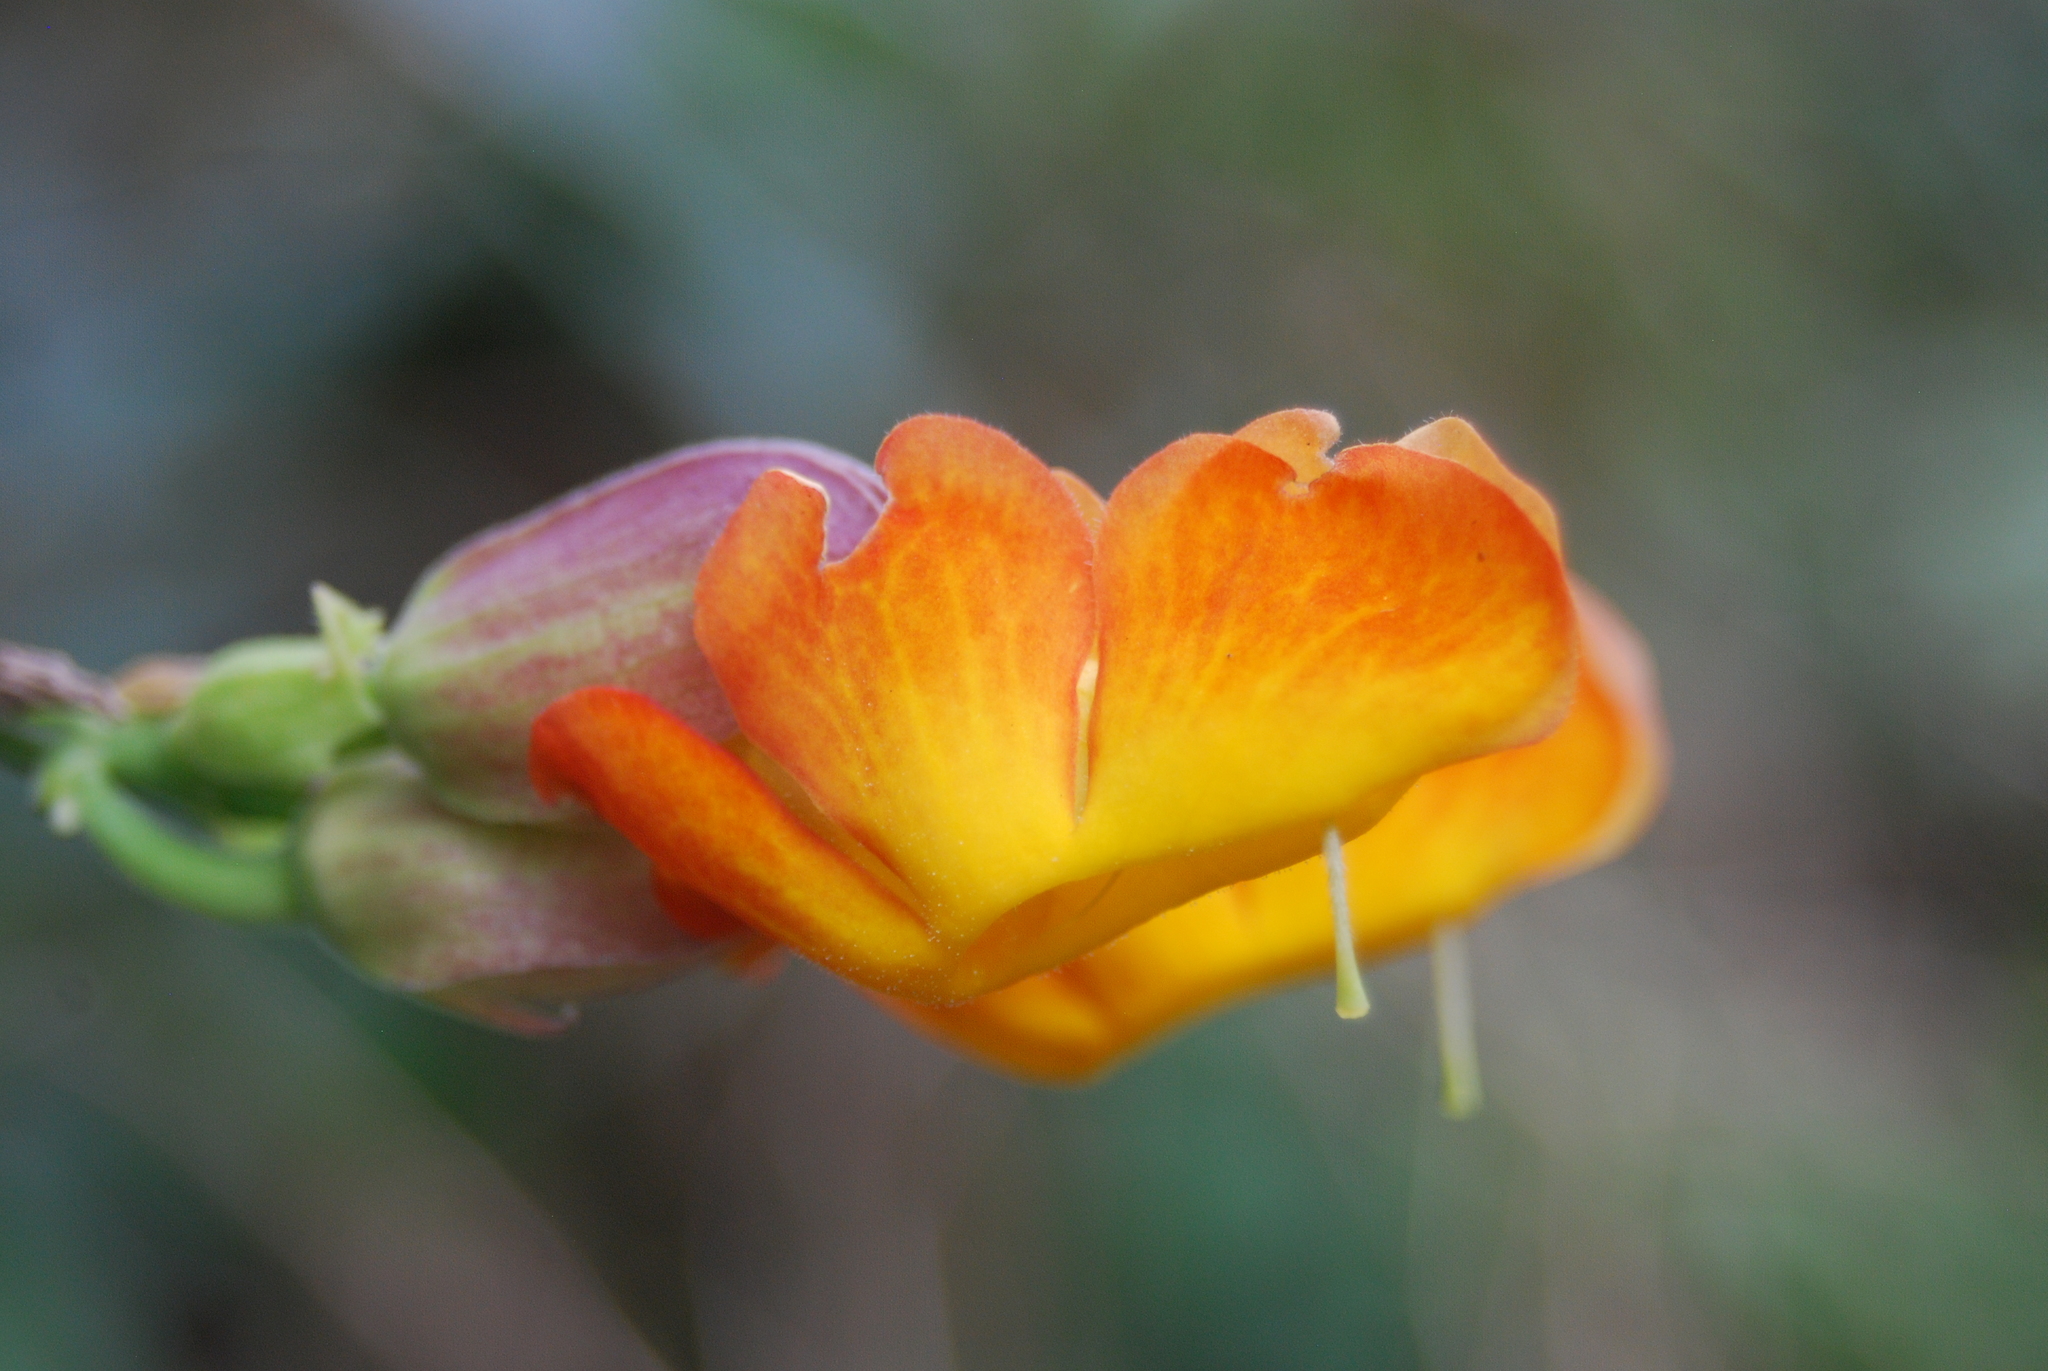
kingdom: Plantae
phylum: Tracheophyta
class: Magnoliopsida
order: Lamiales
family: Acanthaceae
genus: Thunbergia
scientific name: Thunbergia coccinea
